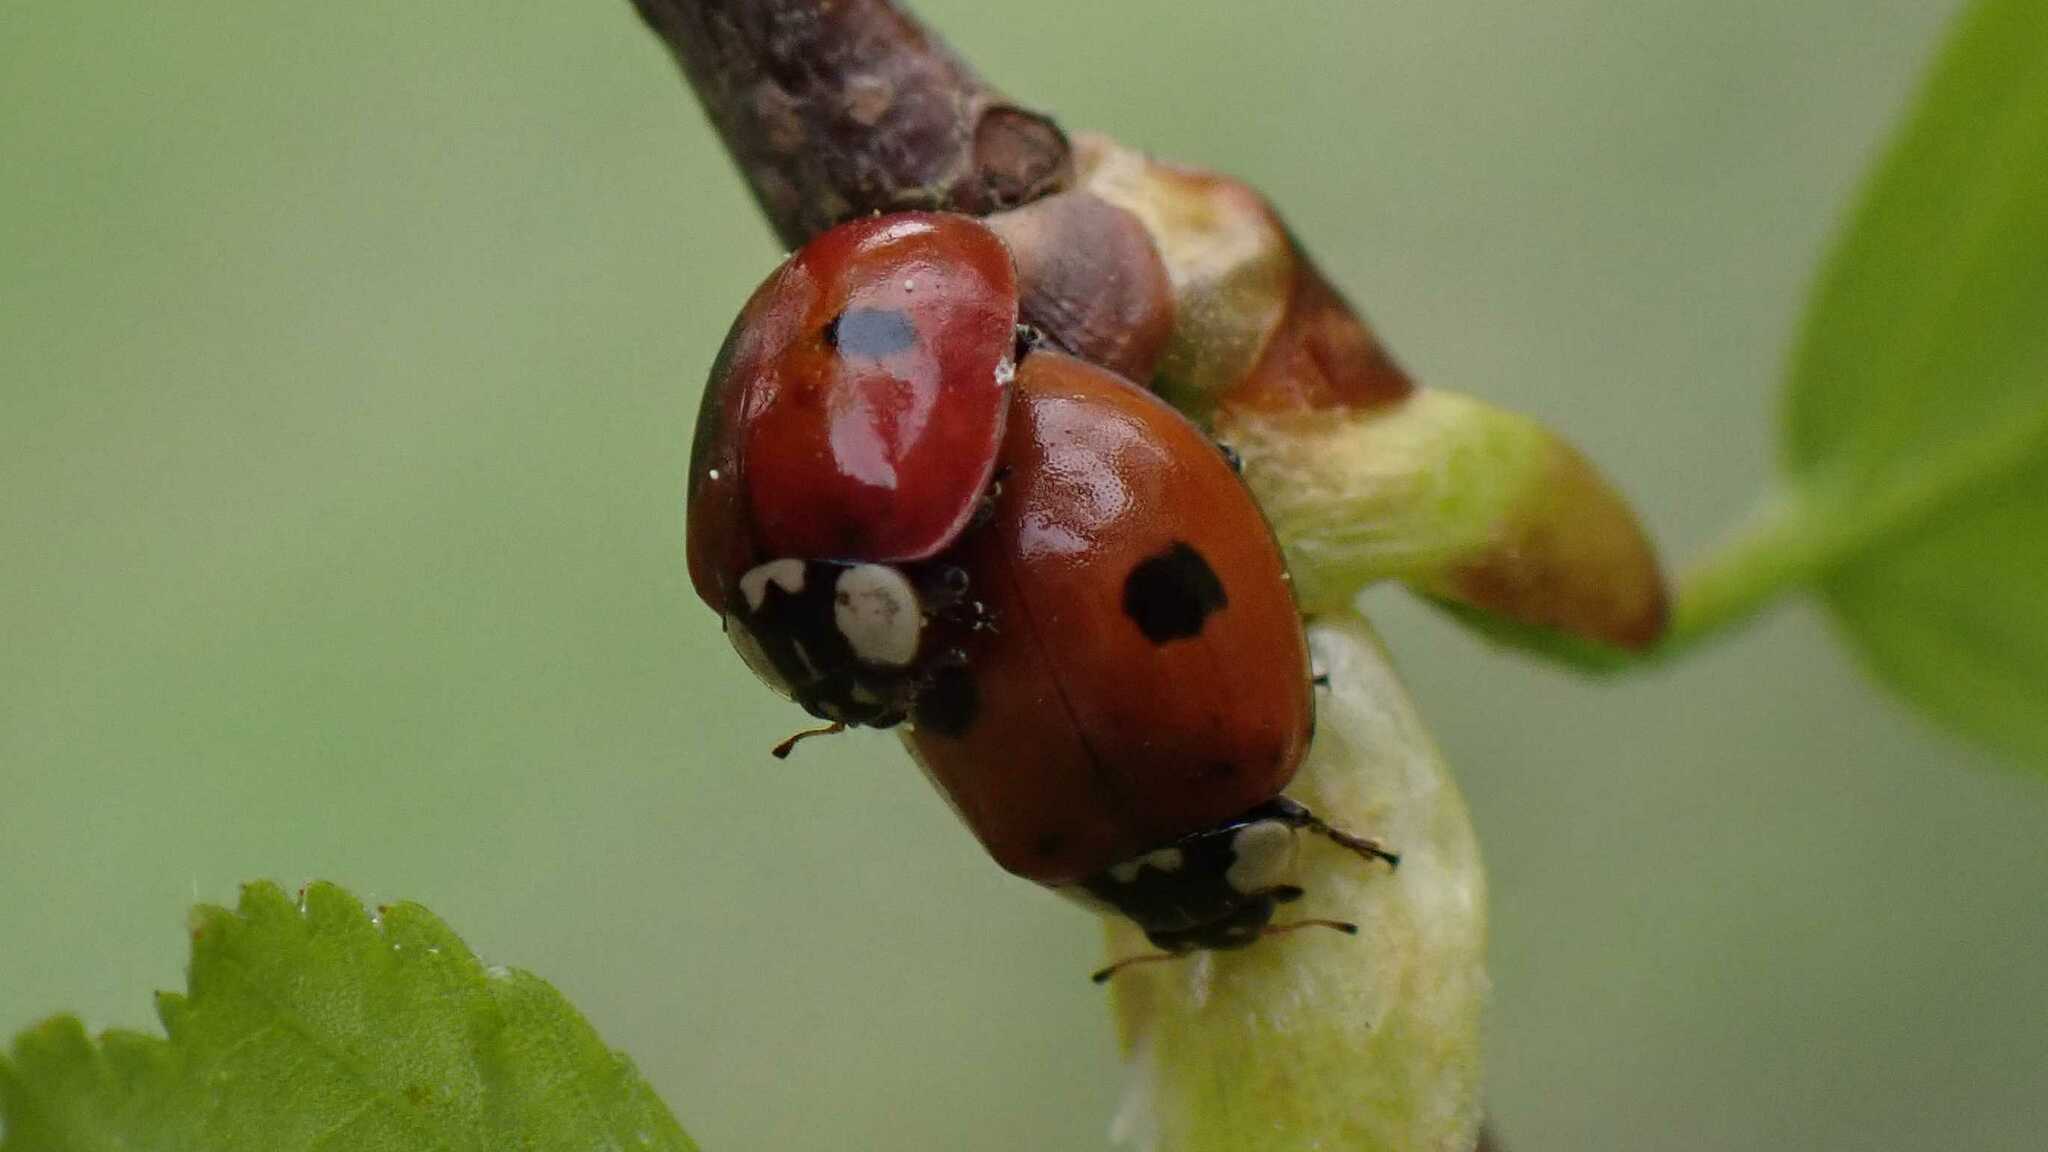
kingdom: Animalia
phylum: Arthropoda
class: Insecta
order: Coleoptera
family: Coccinellidae
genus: Adalia
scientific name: Adalia bipunctata
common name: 2-spot ladybird
